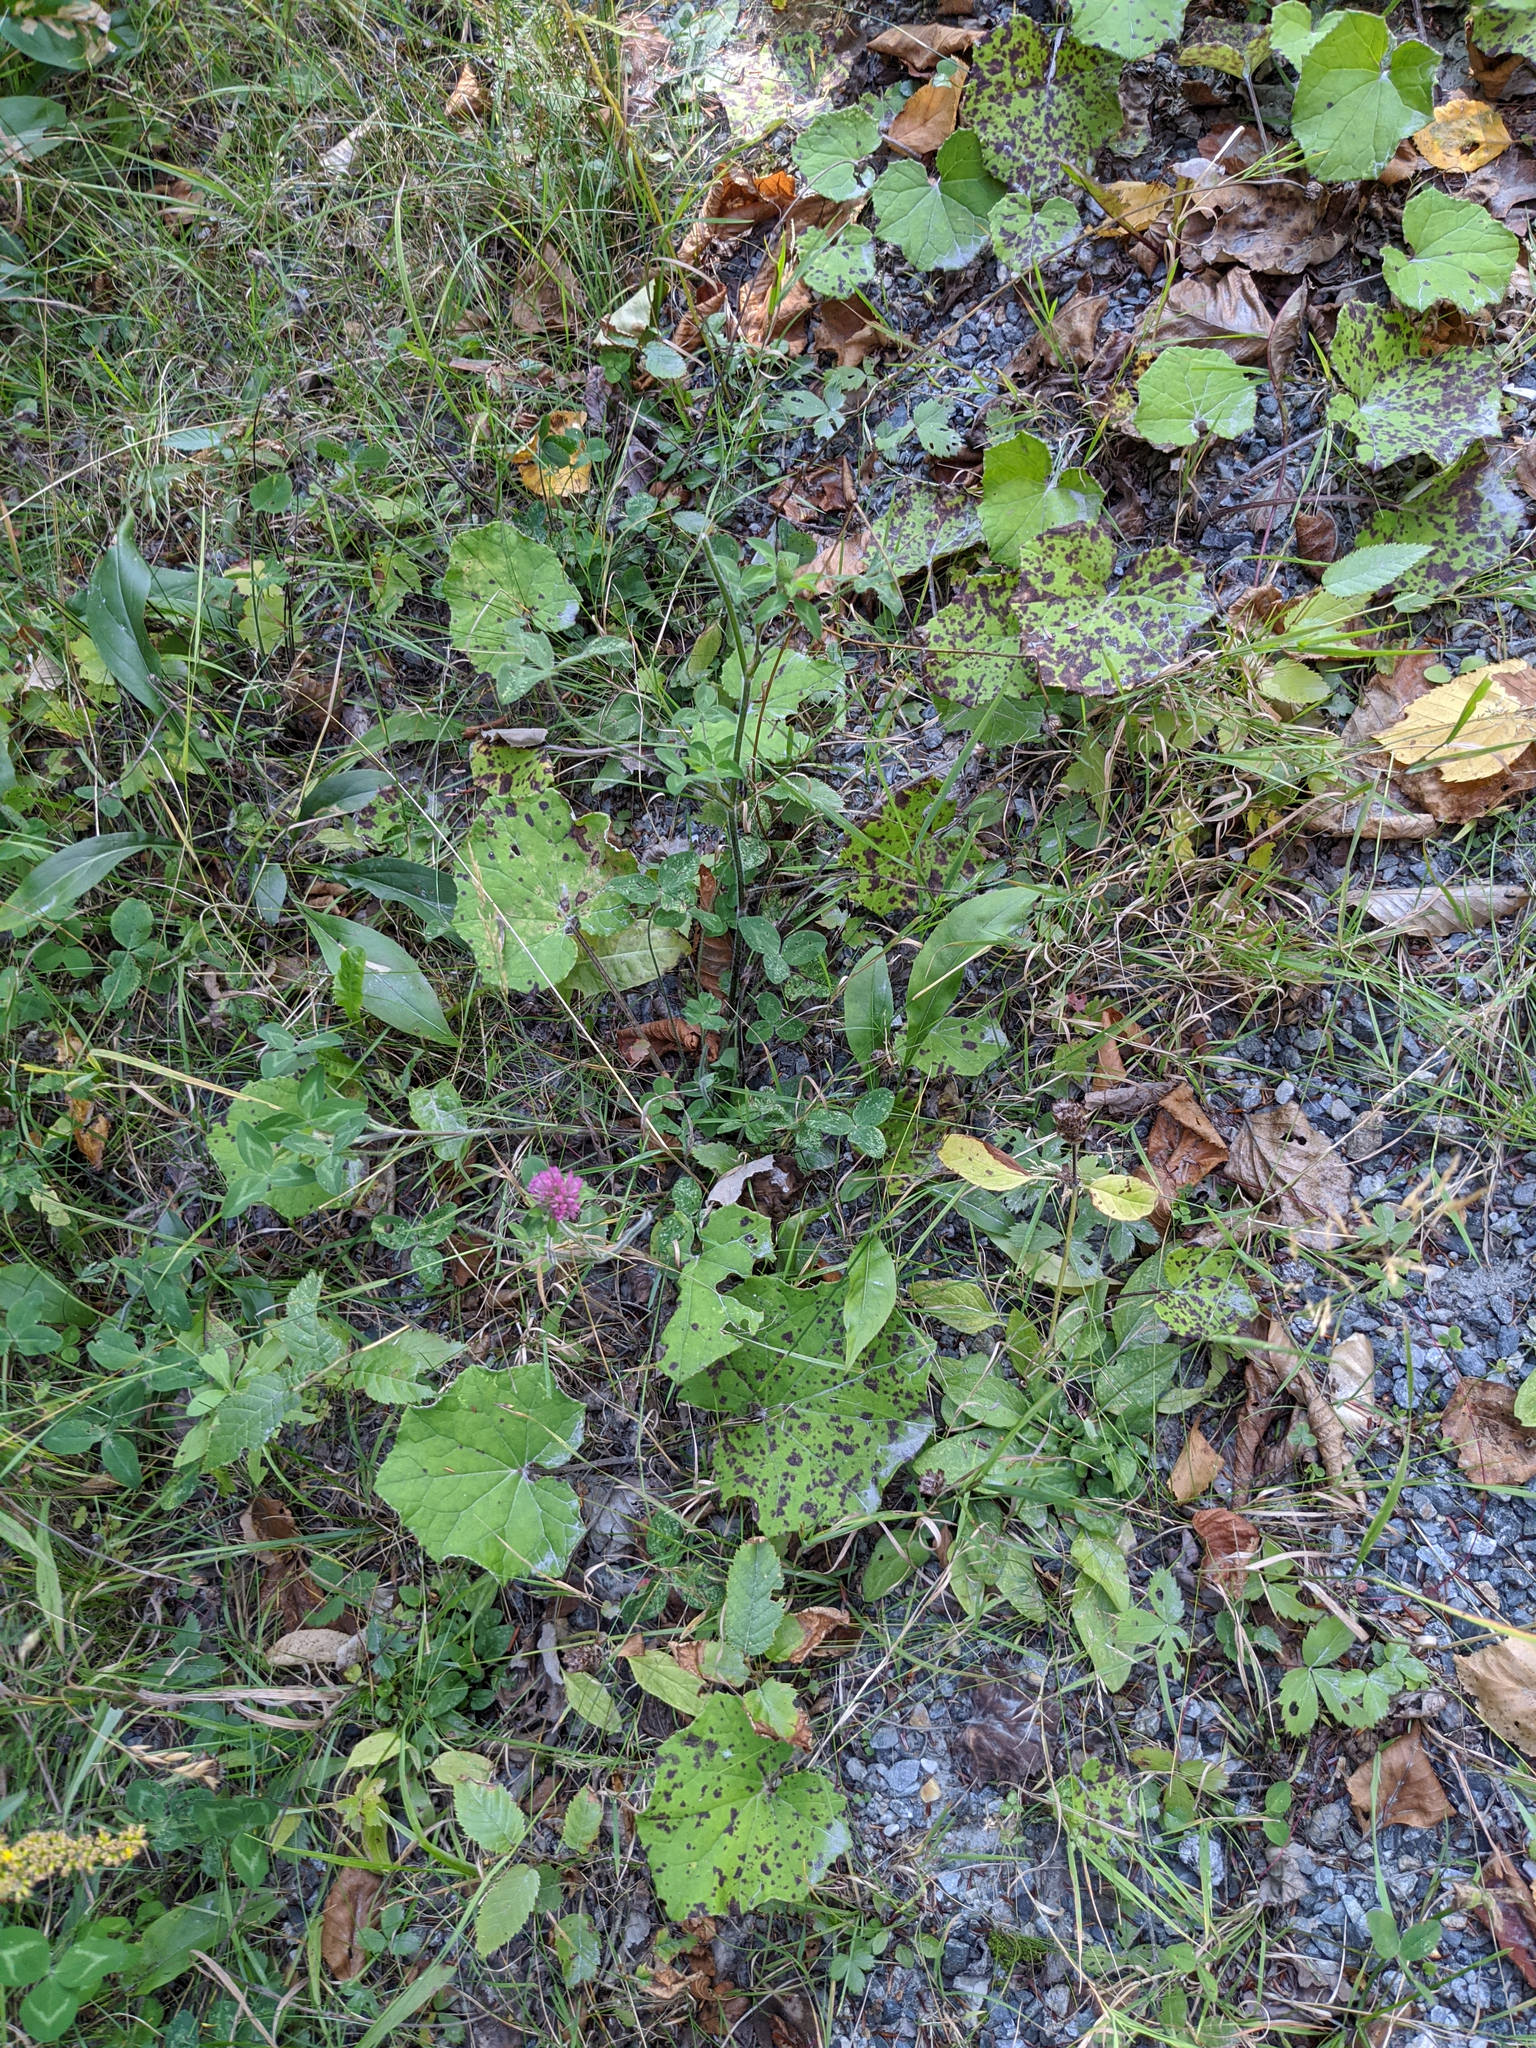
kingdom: Plantae
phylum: Tracheophyta
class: Magnoliopsida
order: Fabales
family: Fabaceae
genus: Trifolium
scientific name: Trifolium pratense
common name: Red clover
